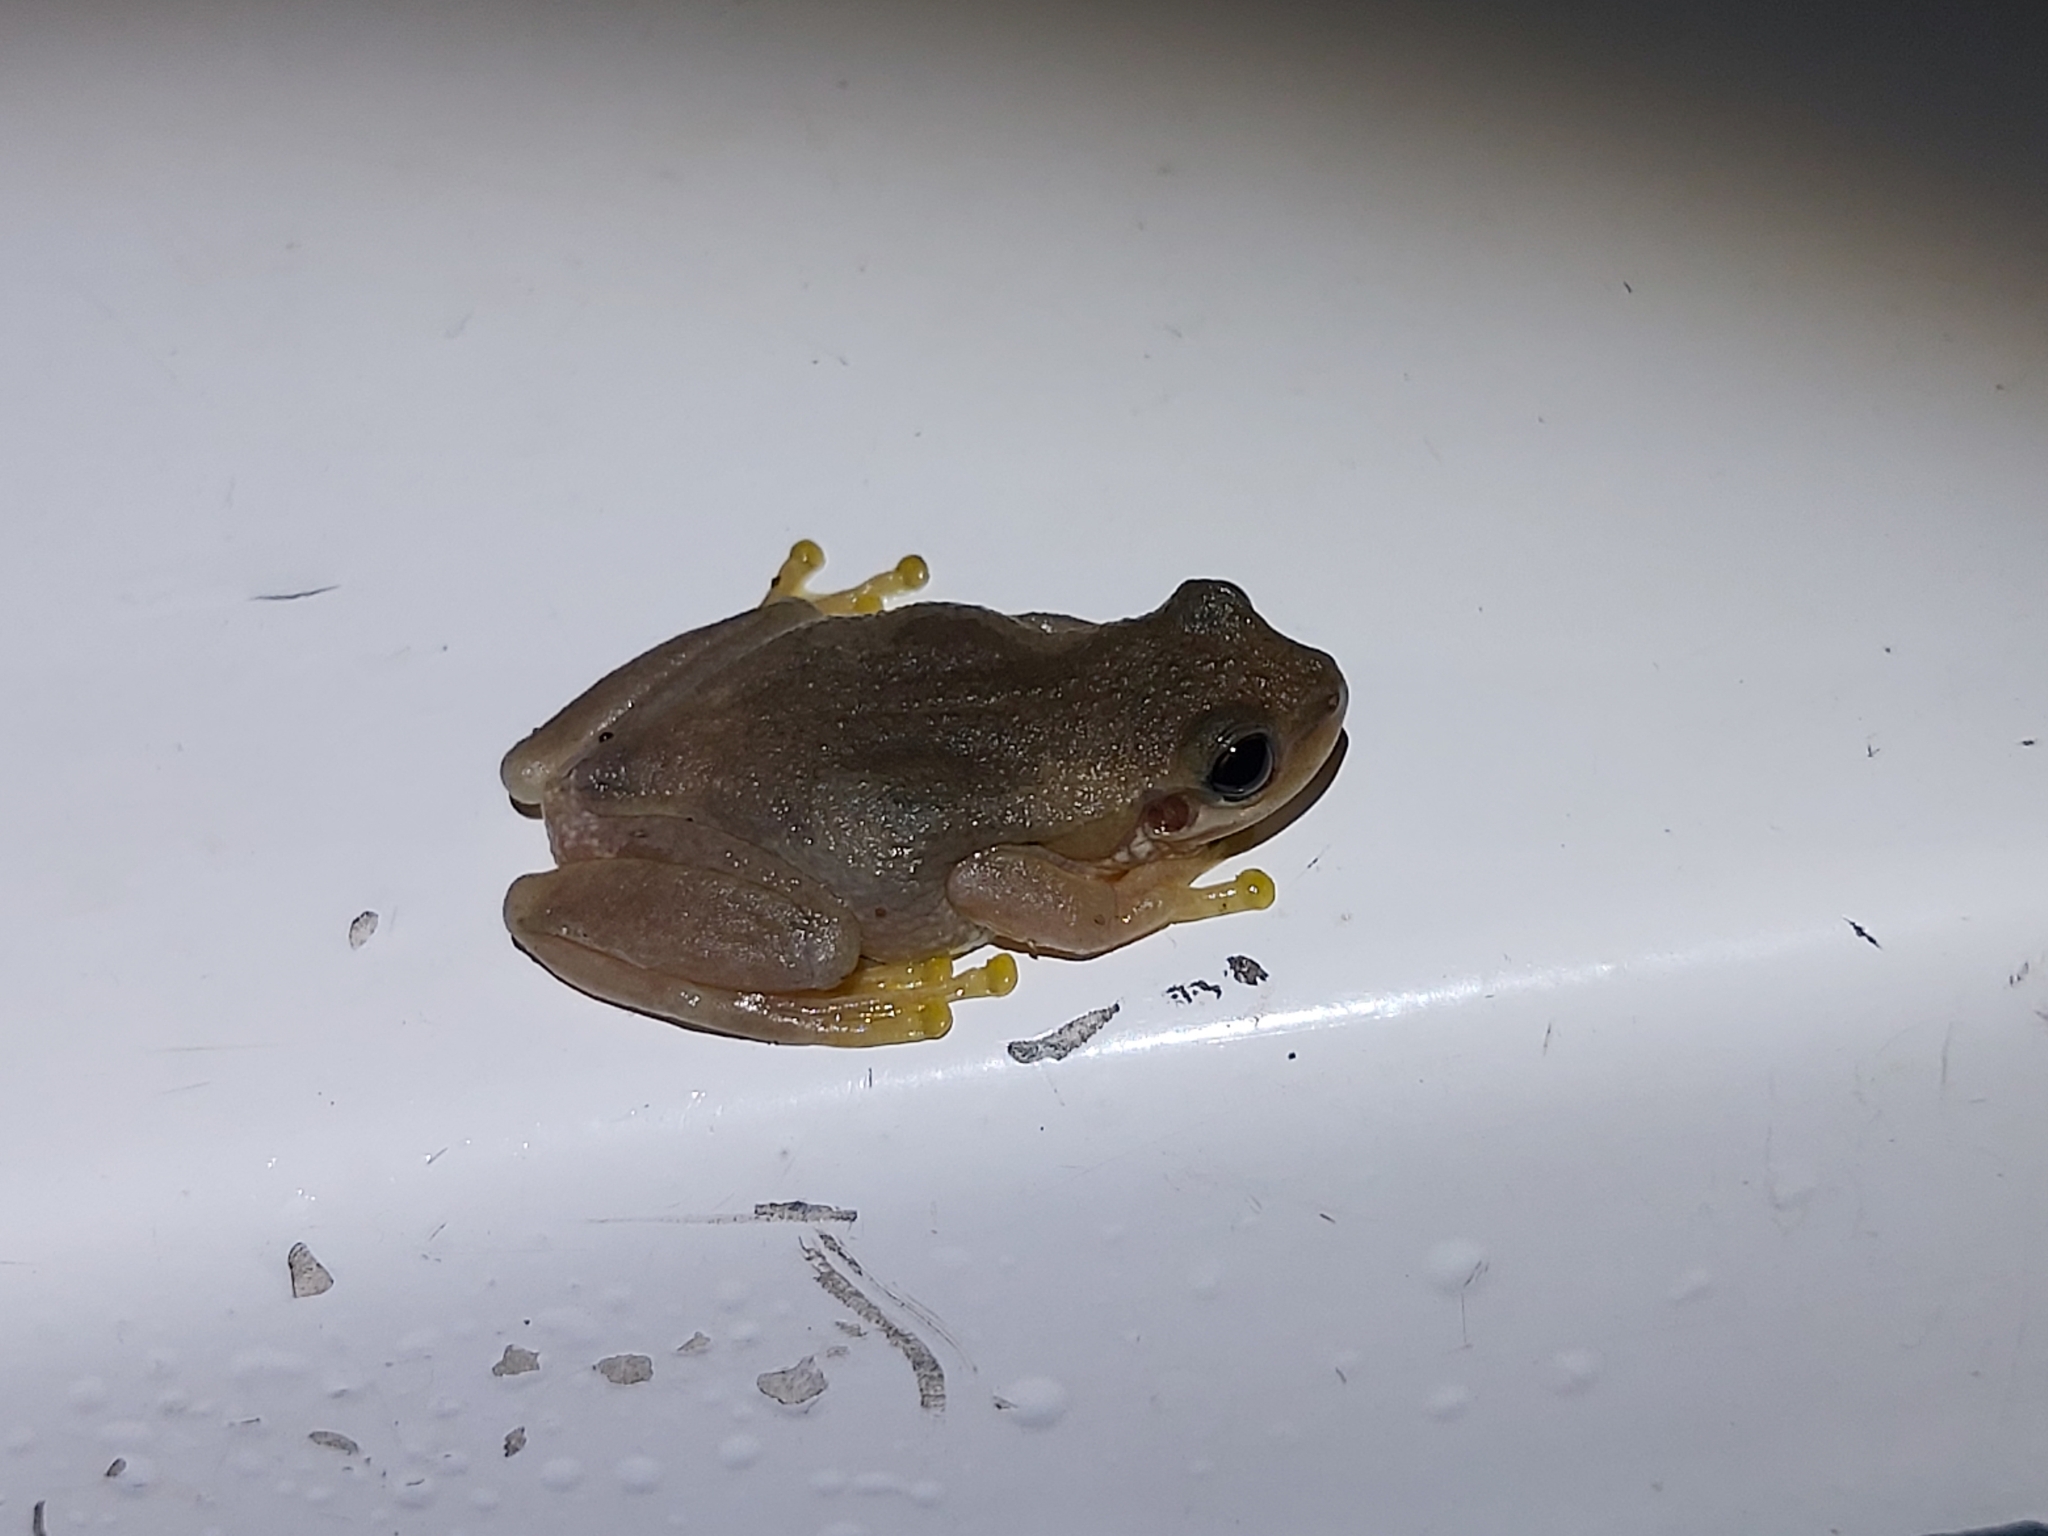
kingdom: Animalia
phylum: Chordata
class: Amphibia
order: Anura
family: Pelodryadidae
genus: Litoria
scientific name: Litoria dentata
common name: Bleating tree frog
